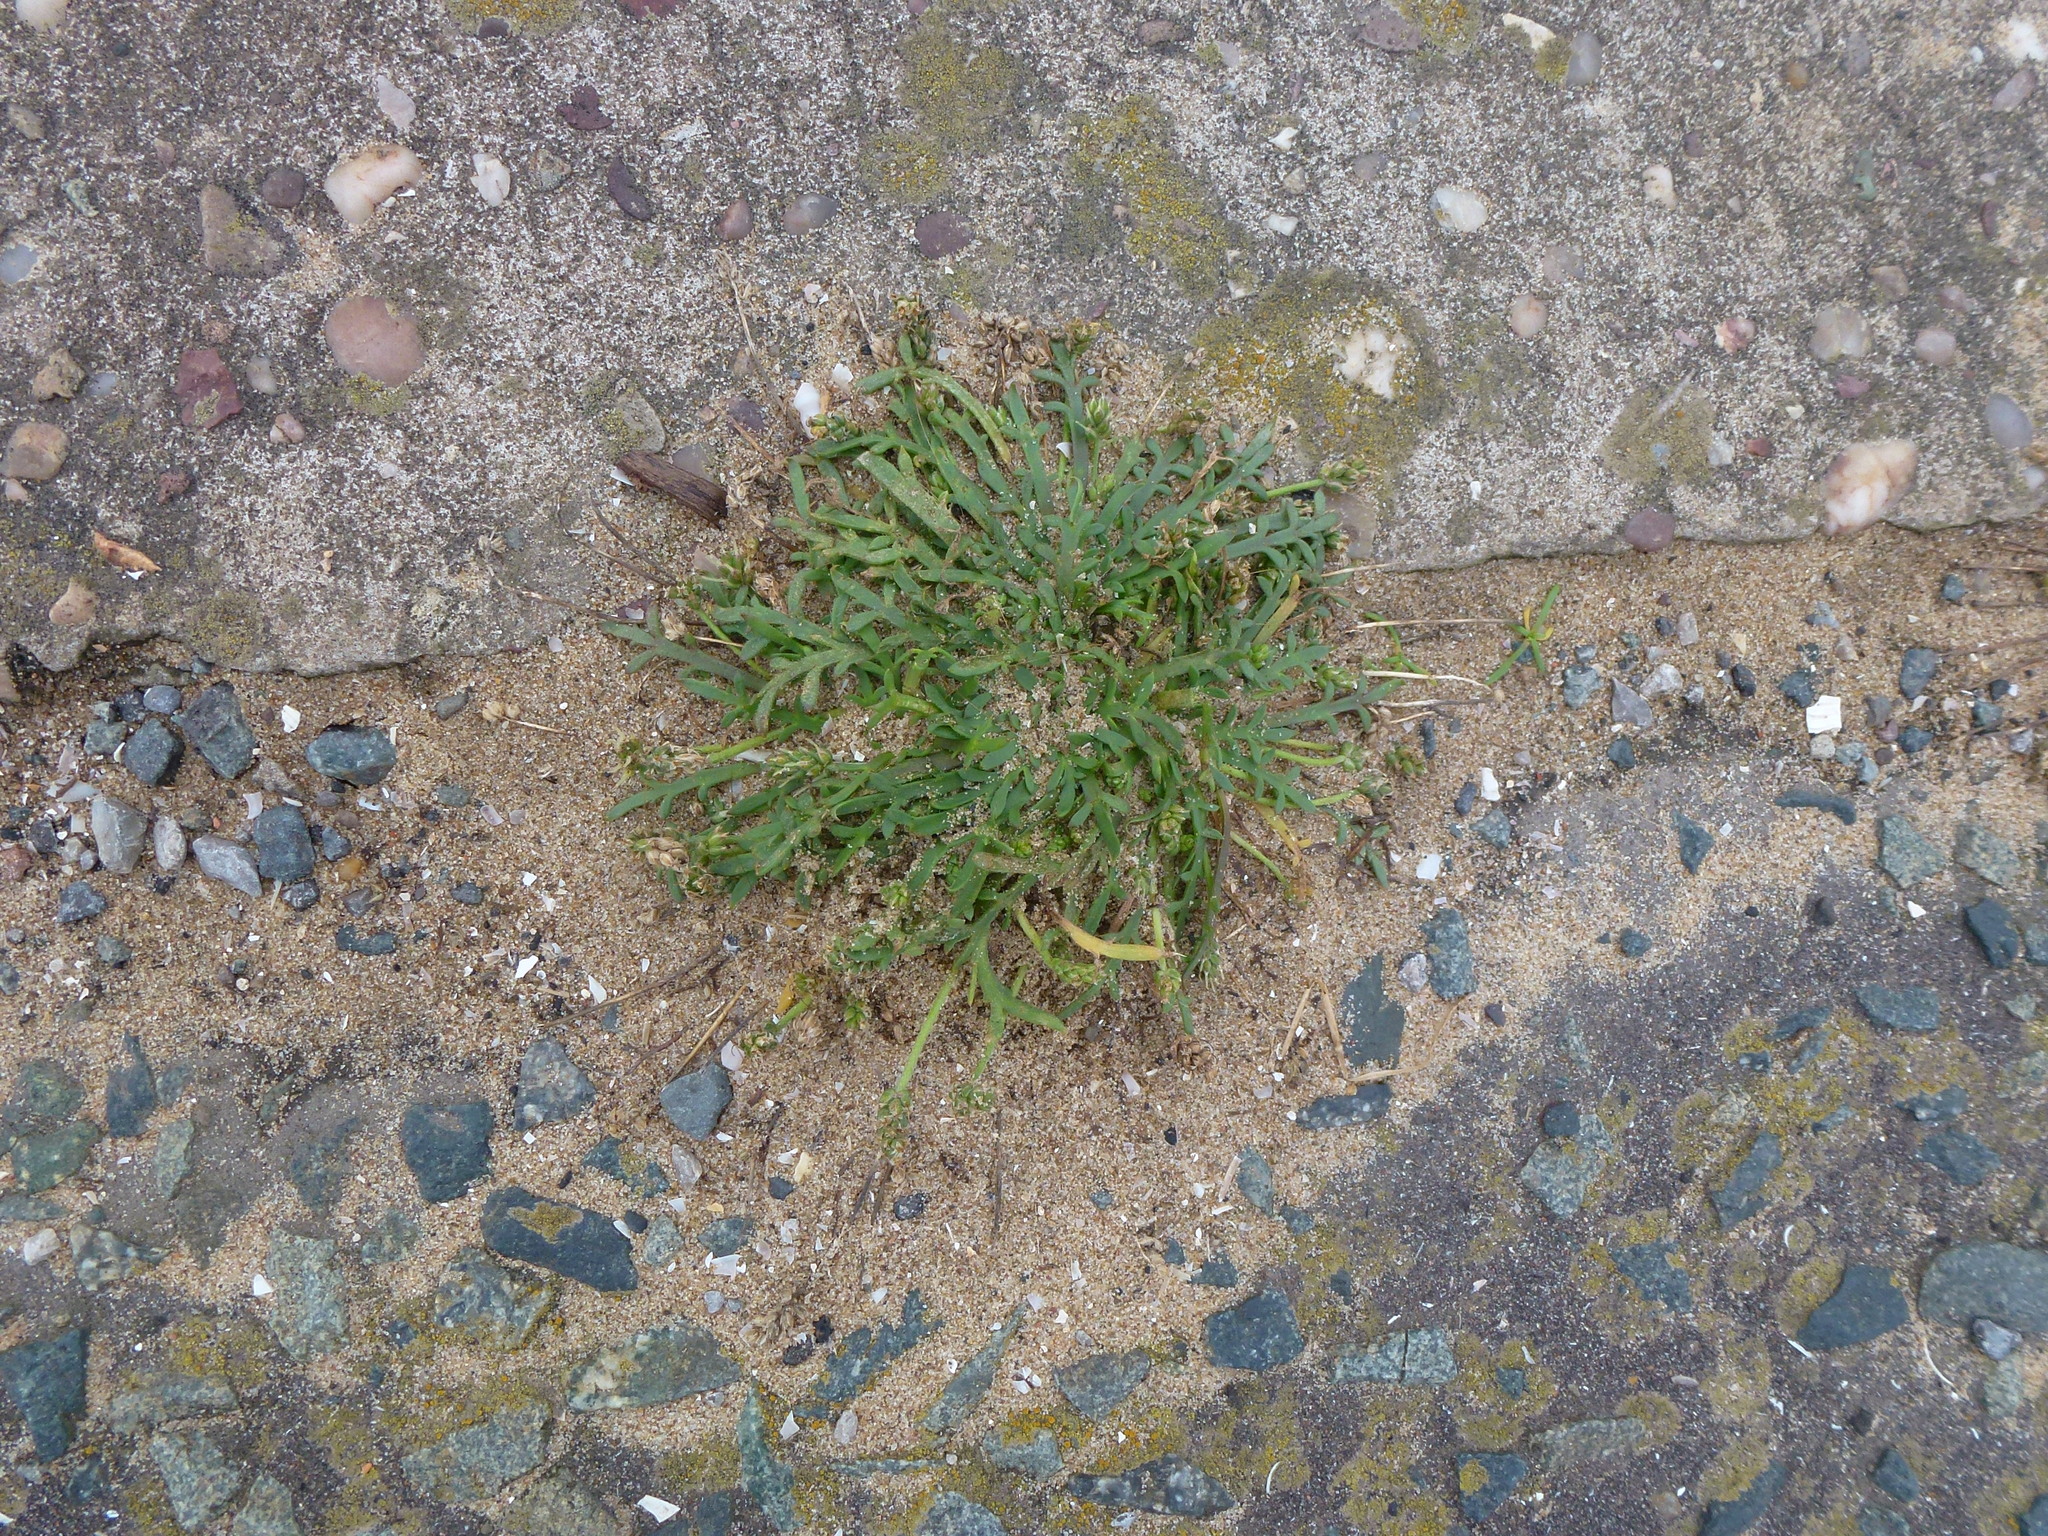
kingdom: Plantae
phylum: Tracheophyta
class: Magnoliopsida
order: Lamiales
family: Plantaginaceae
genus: Plantago
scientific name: Plantago coronopus
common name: Buck's-horn plantain
